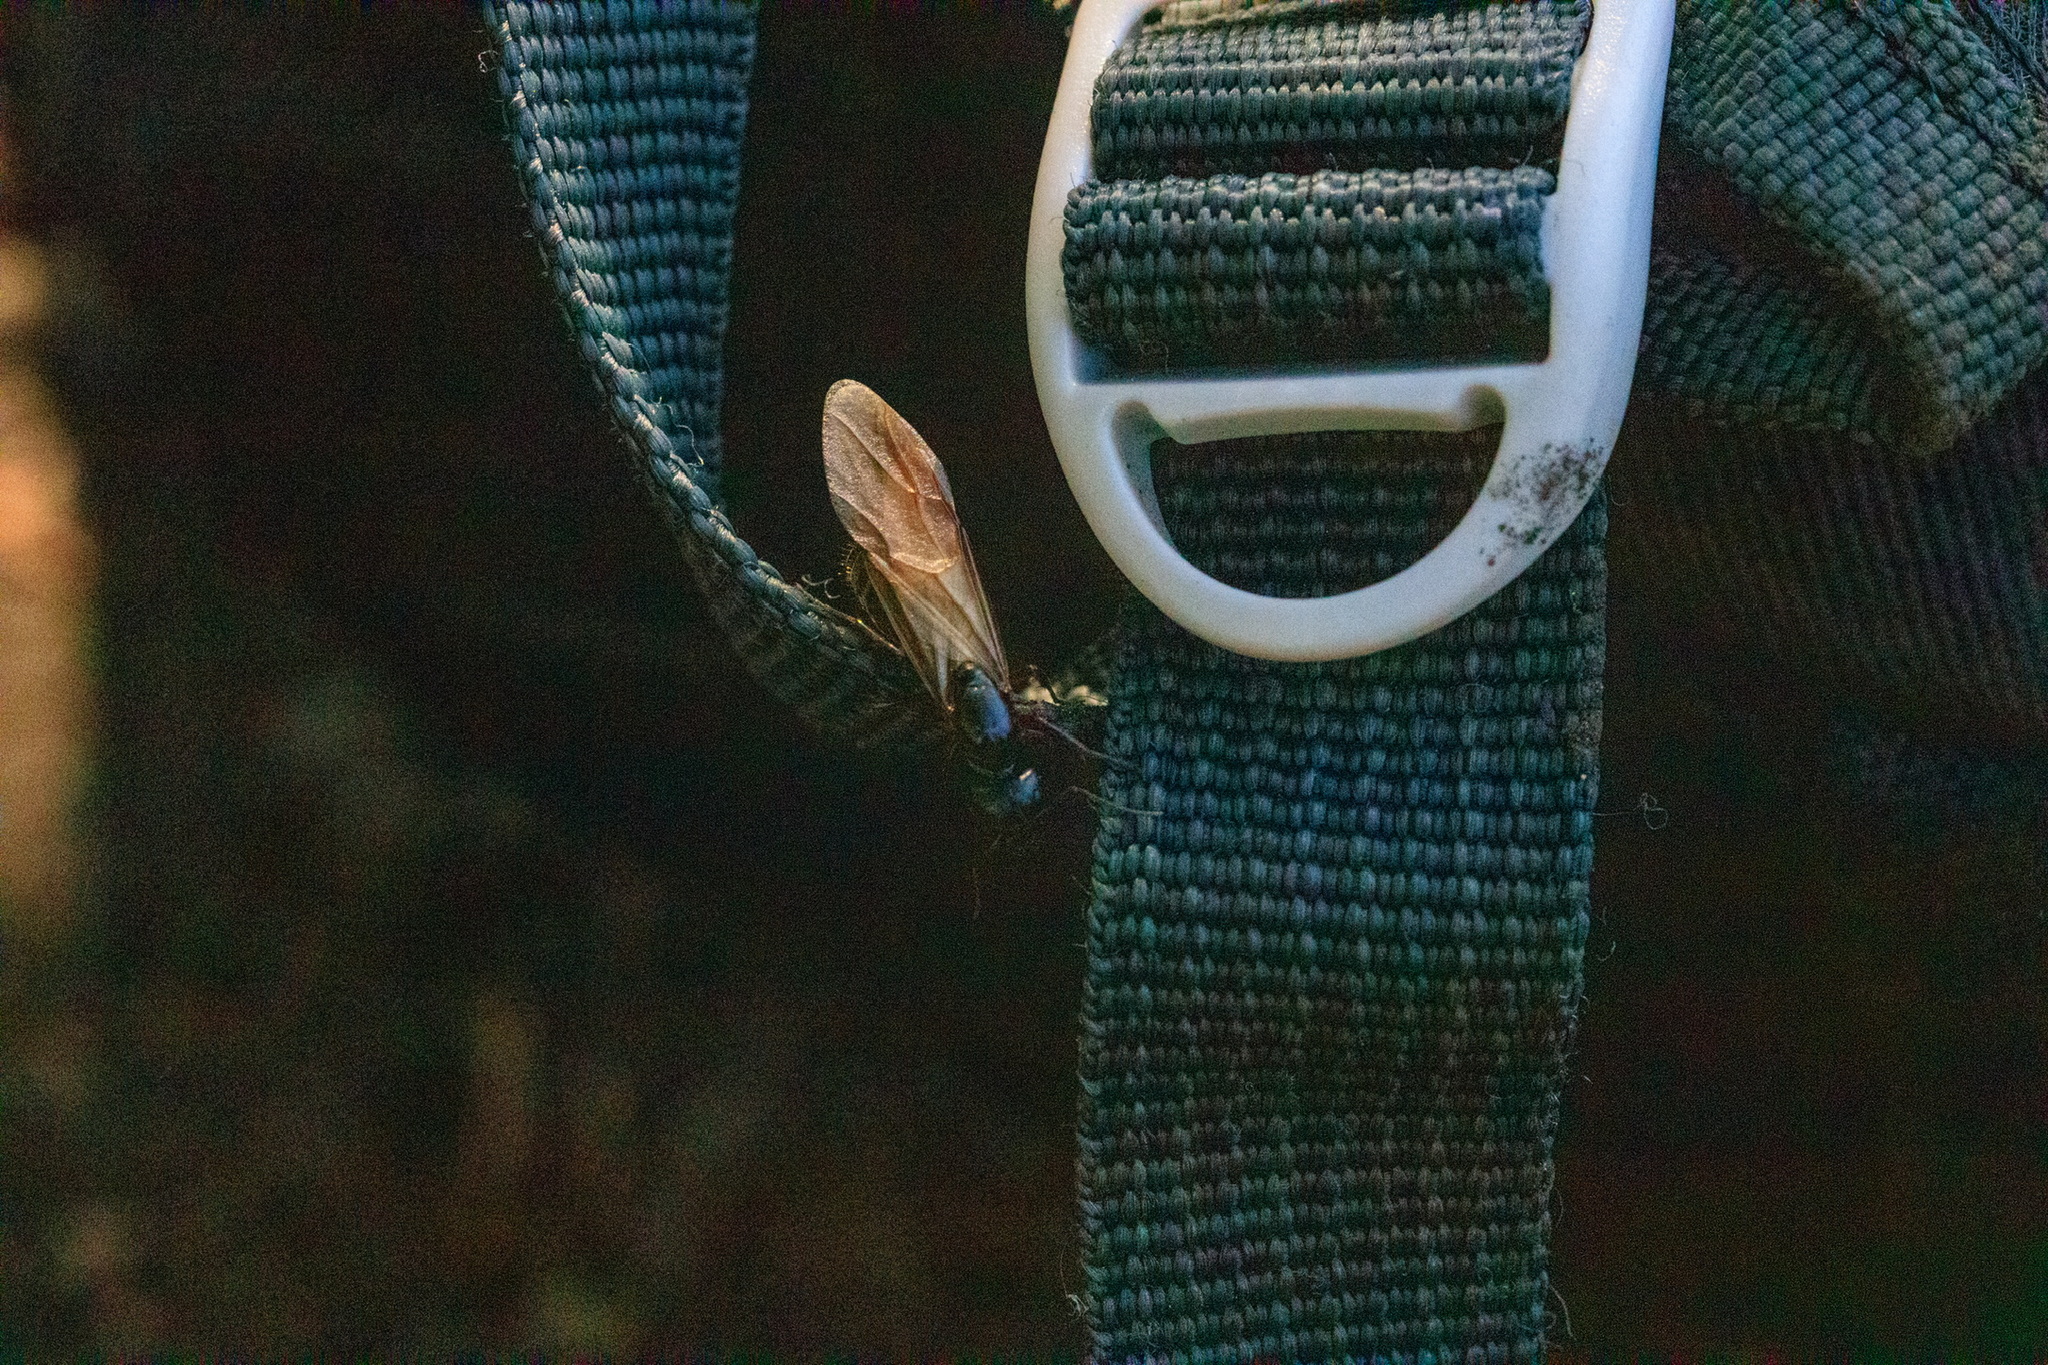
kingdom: Animalia
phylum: Arthropoda
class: Insecta
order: Hymenoptera
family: Formicidae
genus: Camponotus
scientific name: Camponotus herculeanus
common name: Hercules ant
